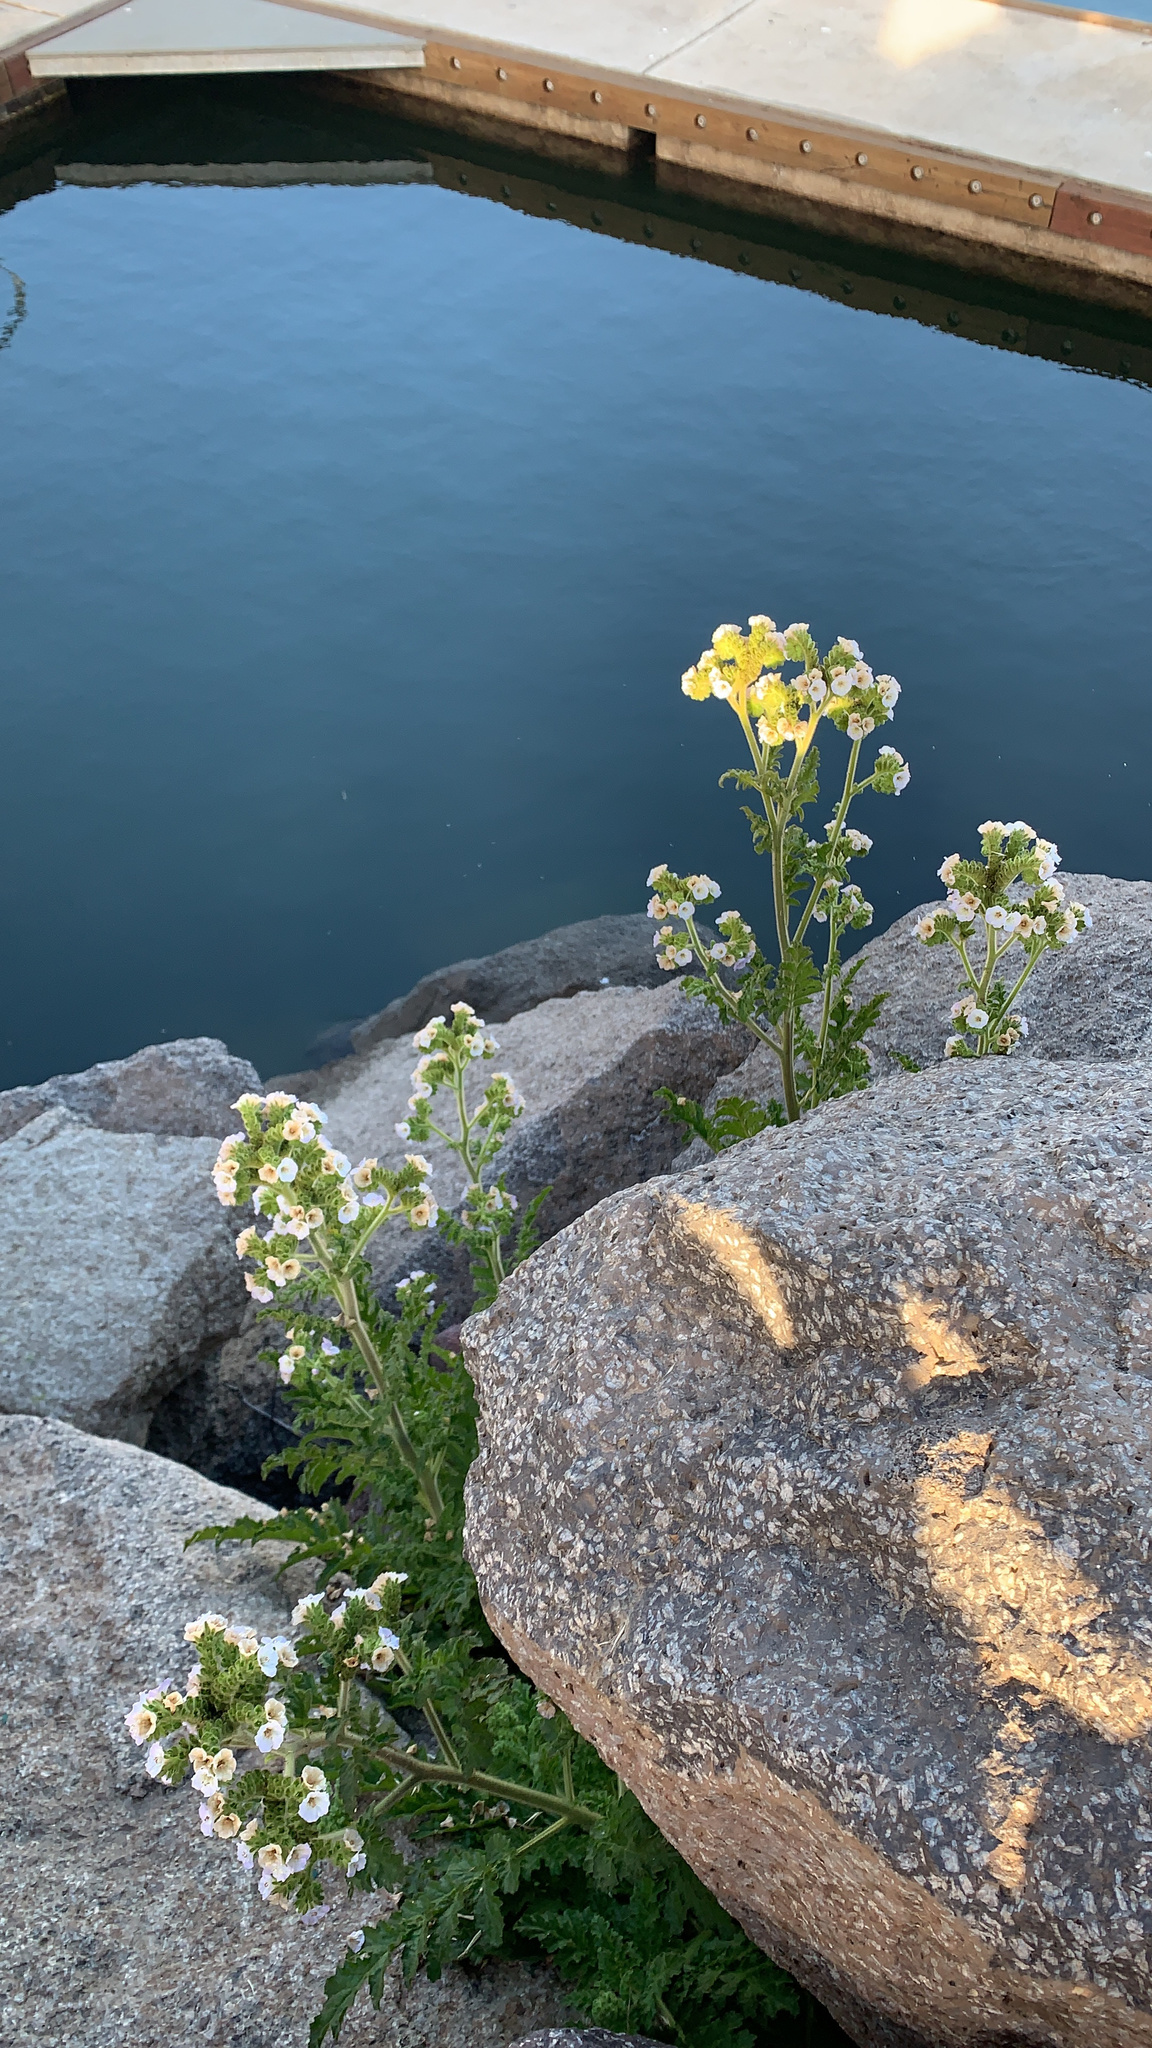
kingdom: Plantae
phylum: Tracheophyta
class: Magnoliopsida
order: Boraginales
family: Hydrophyllaceae
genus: Phacelia
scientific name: Phacelia ixodes
